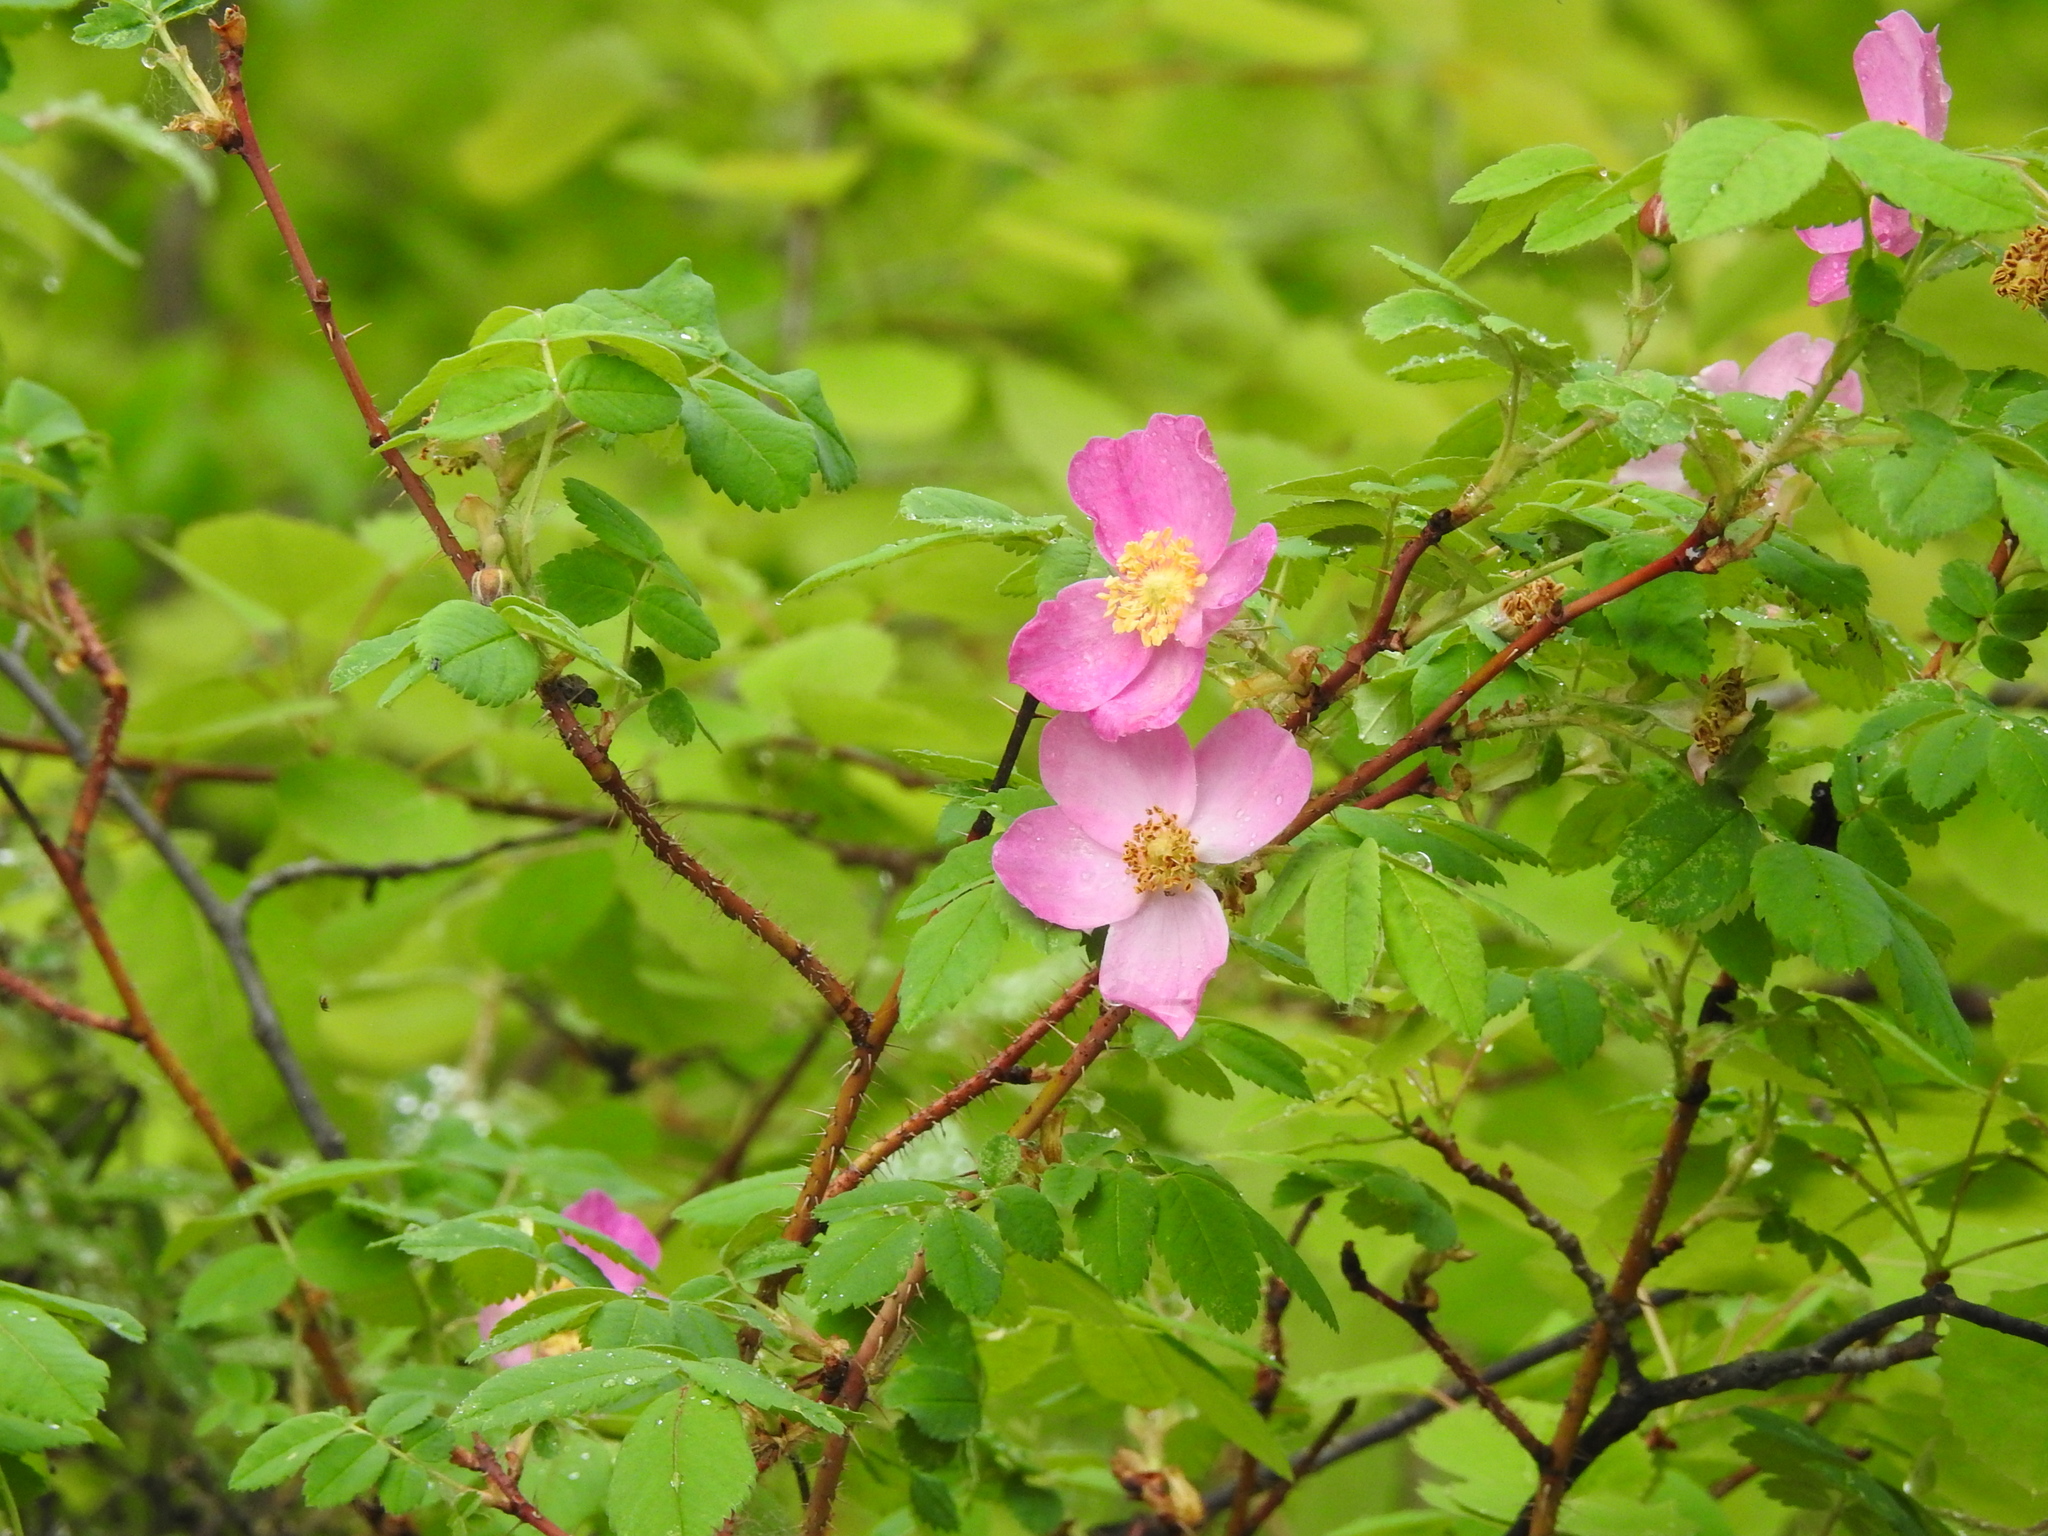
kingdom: Plantae
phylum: Tracheophyta
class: Magnoliopsida
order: Rosales
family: Rosaceae
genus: Rosa
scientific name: Rosa acicularis
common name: Prickly rose
